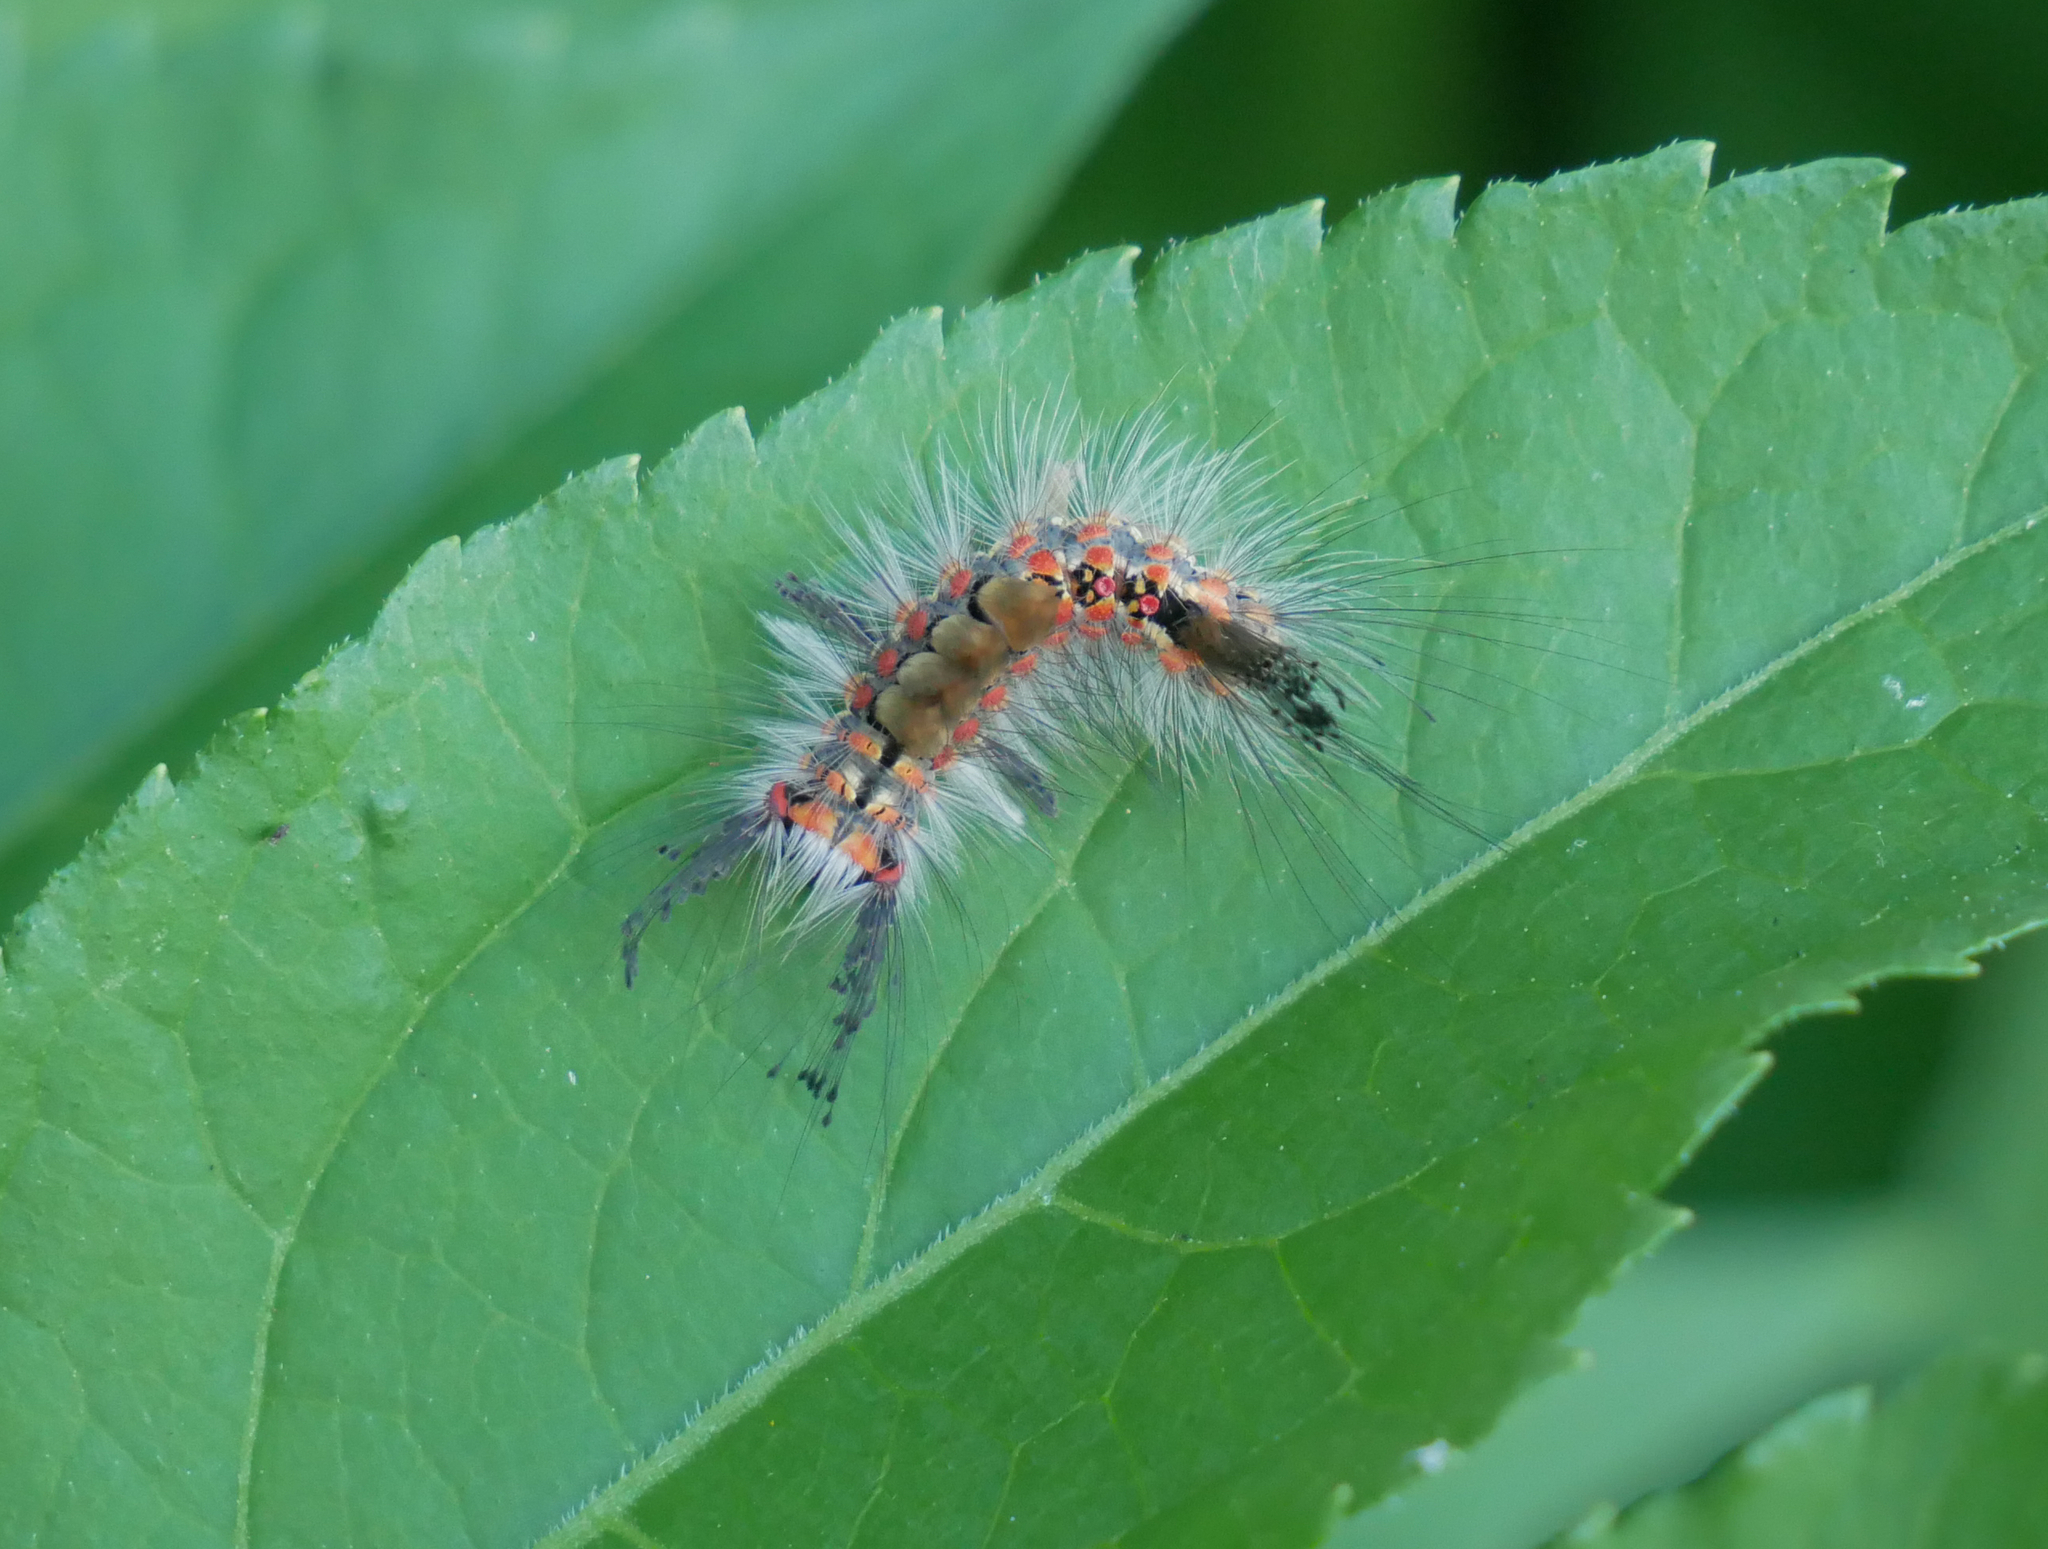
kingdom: Animalia
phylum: Arthropoda
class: Insecta
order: Lepidoptera
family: Erebidae
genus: Orgyia
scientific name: Orgyia antiqua
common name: Vapourer
